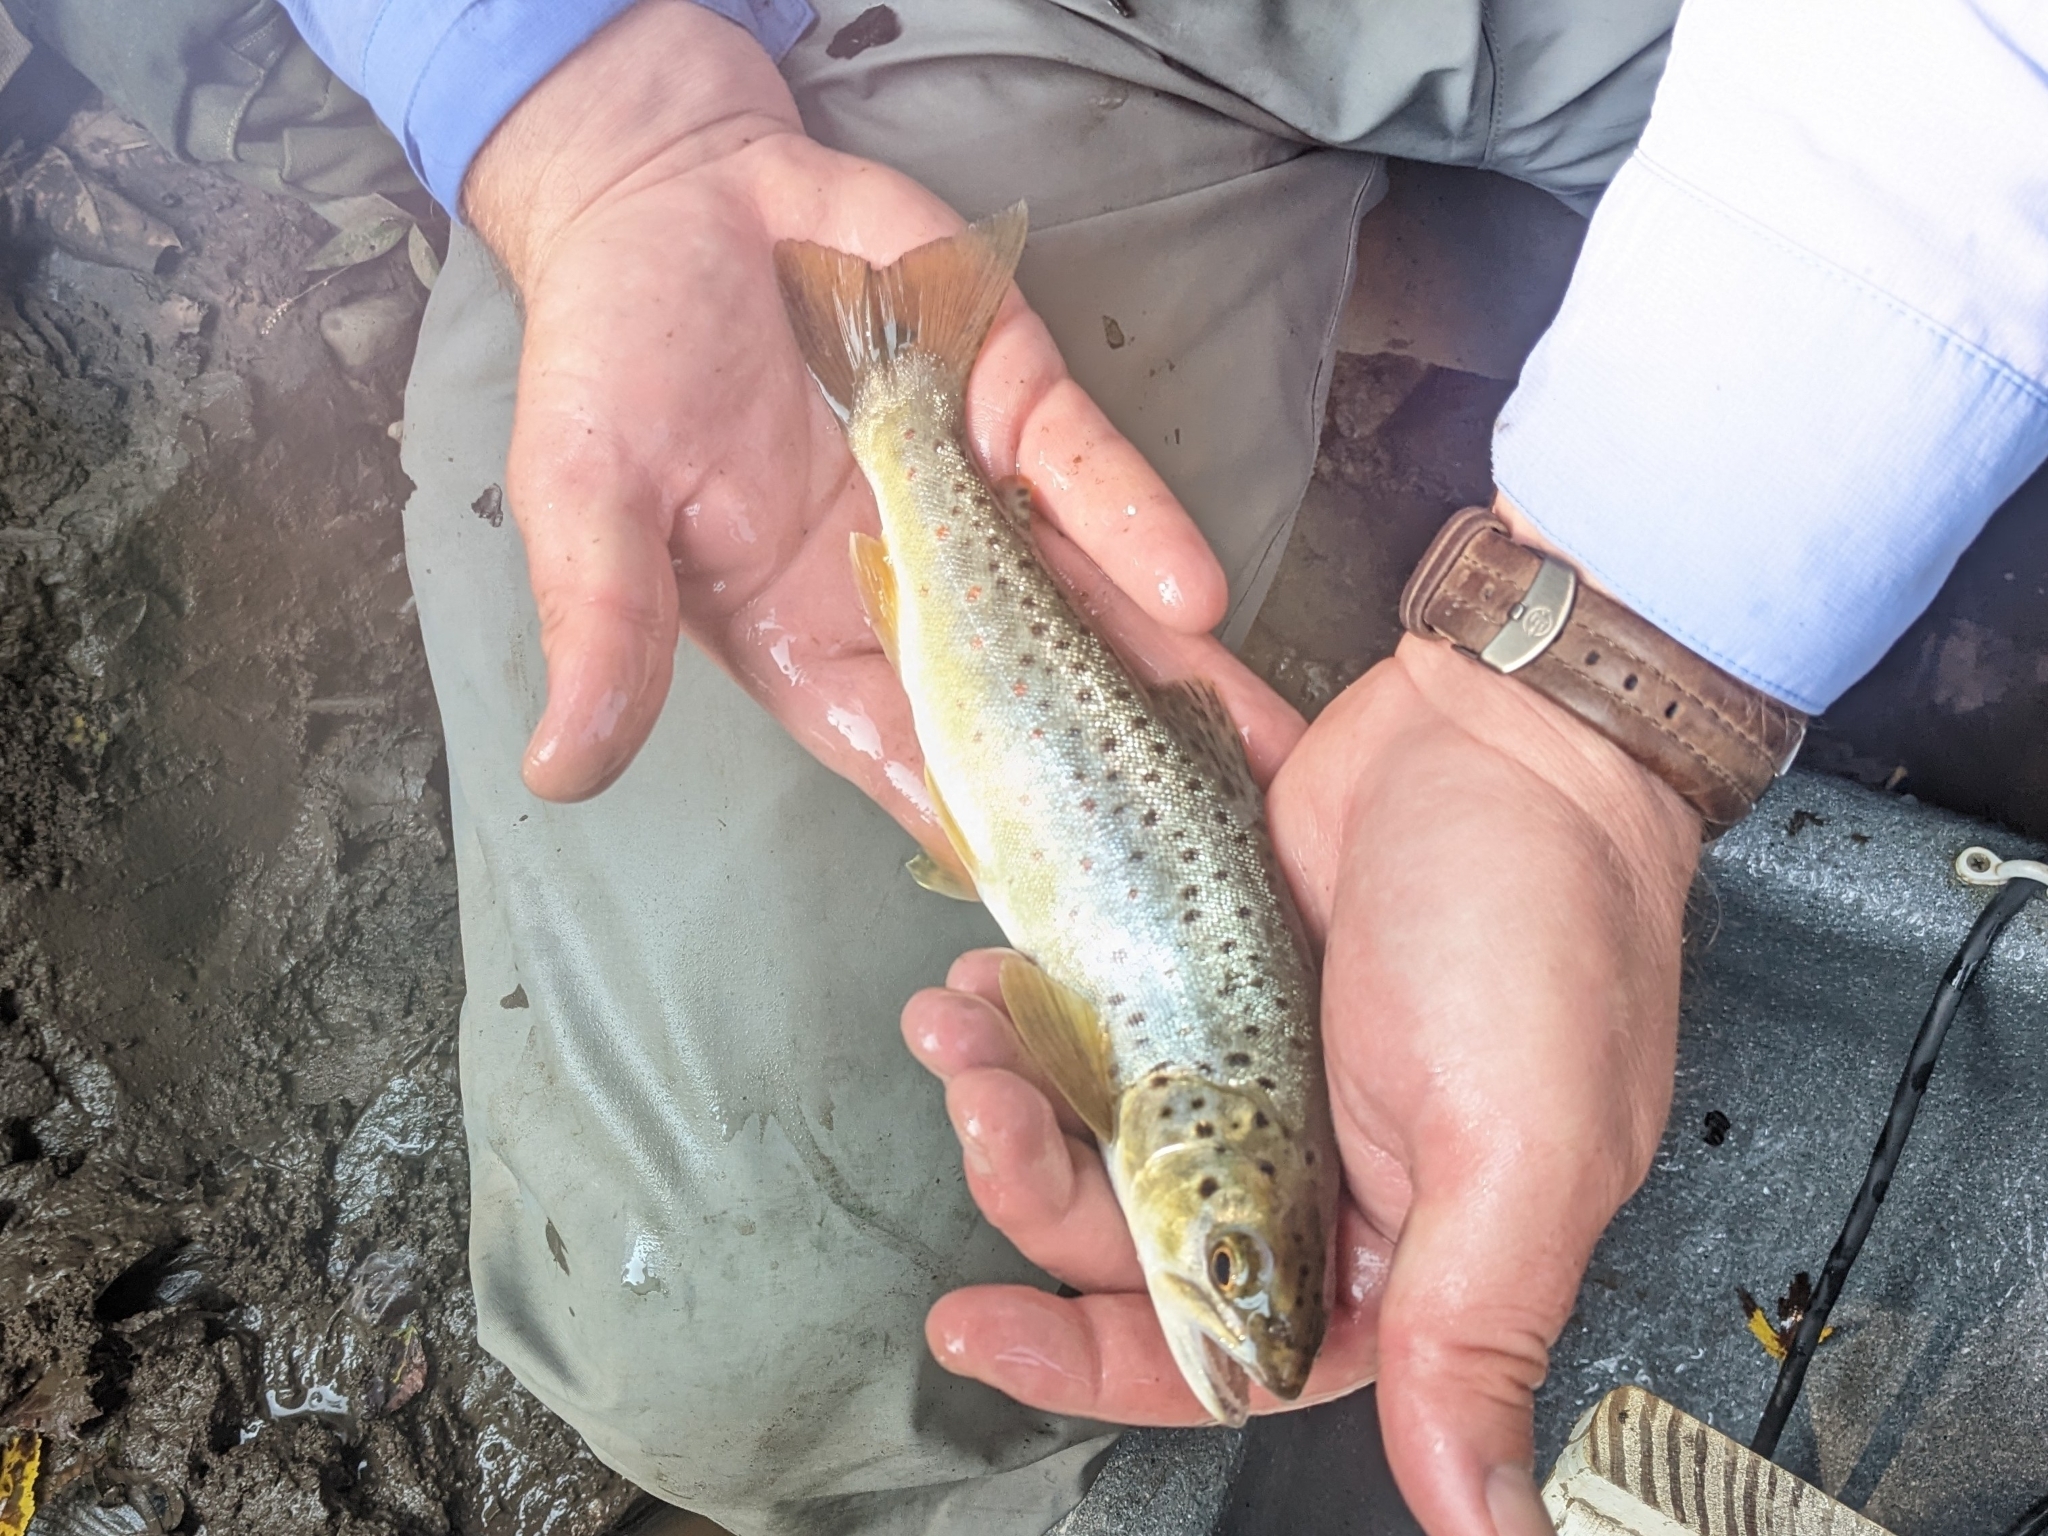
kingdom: Animalia
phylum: Chordata
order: Salmoniformes
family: Salmonidae
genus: Salmo
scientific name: Salmo trutta
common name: Brown trout
